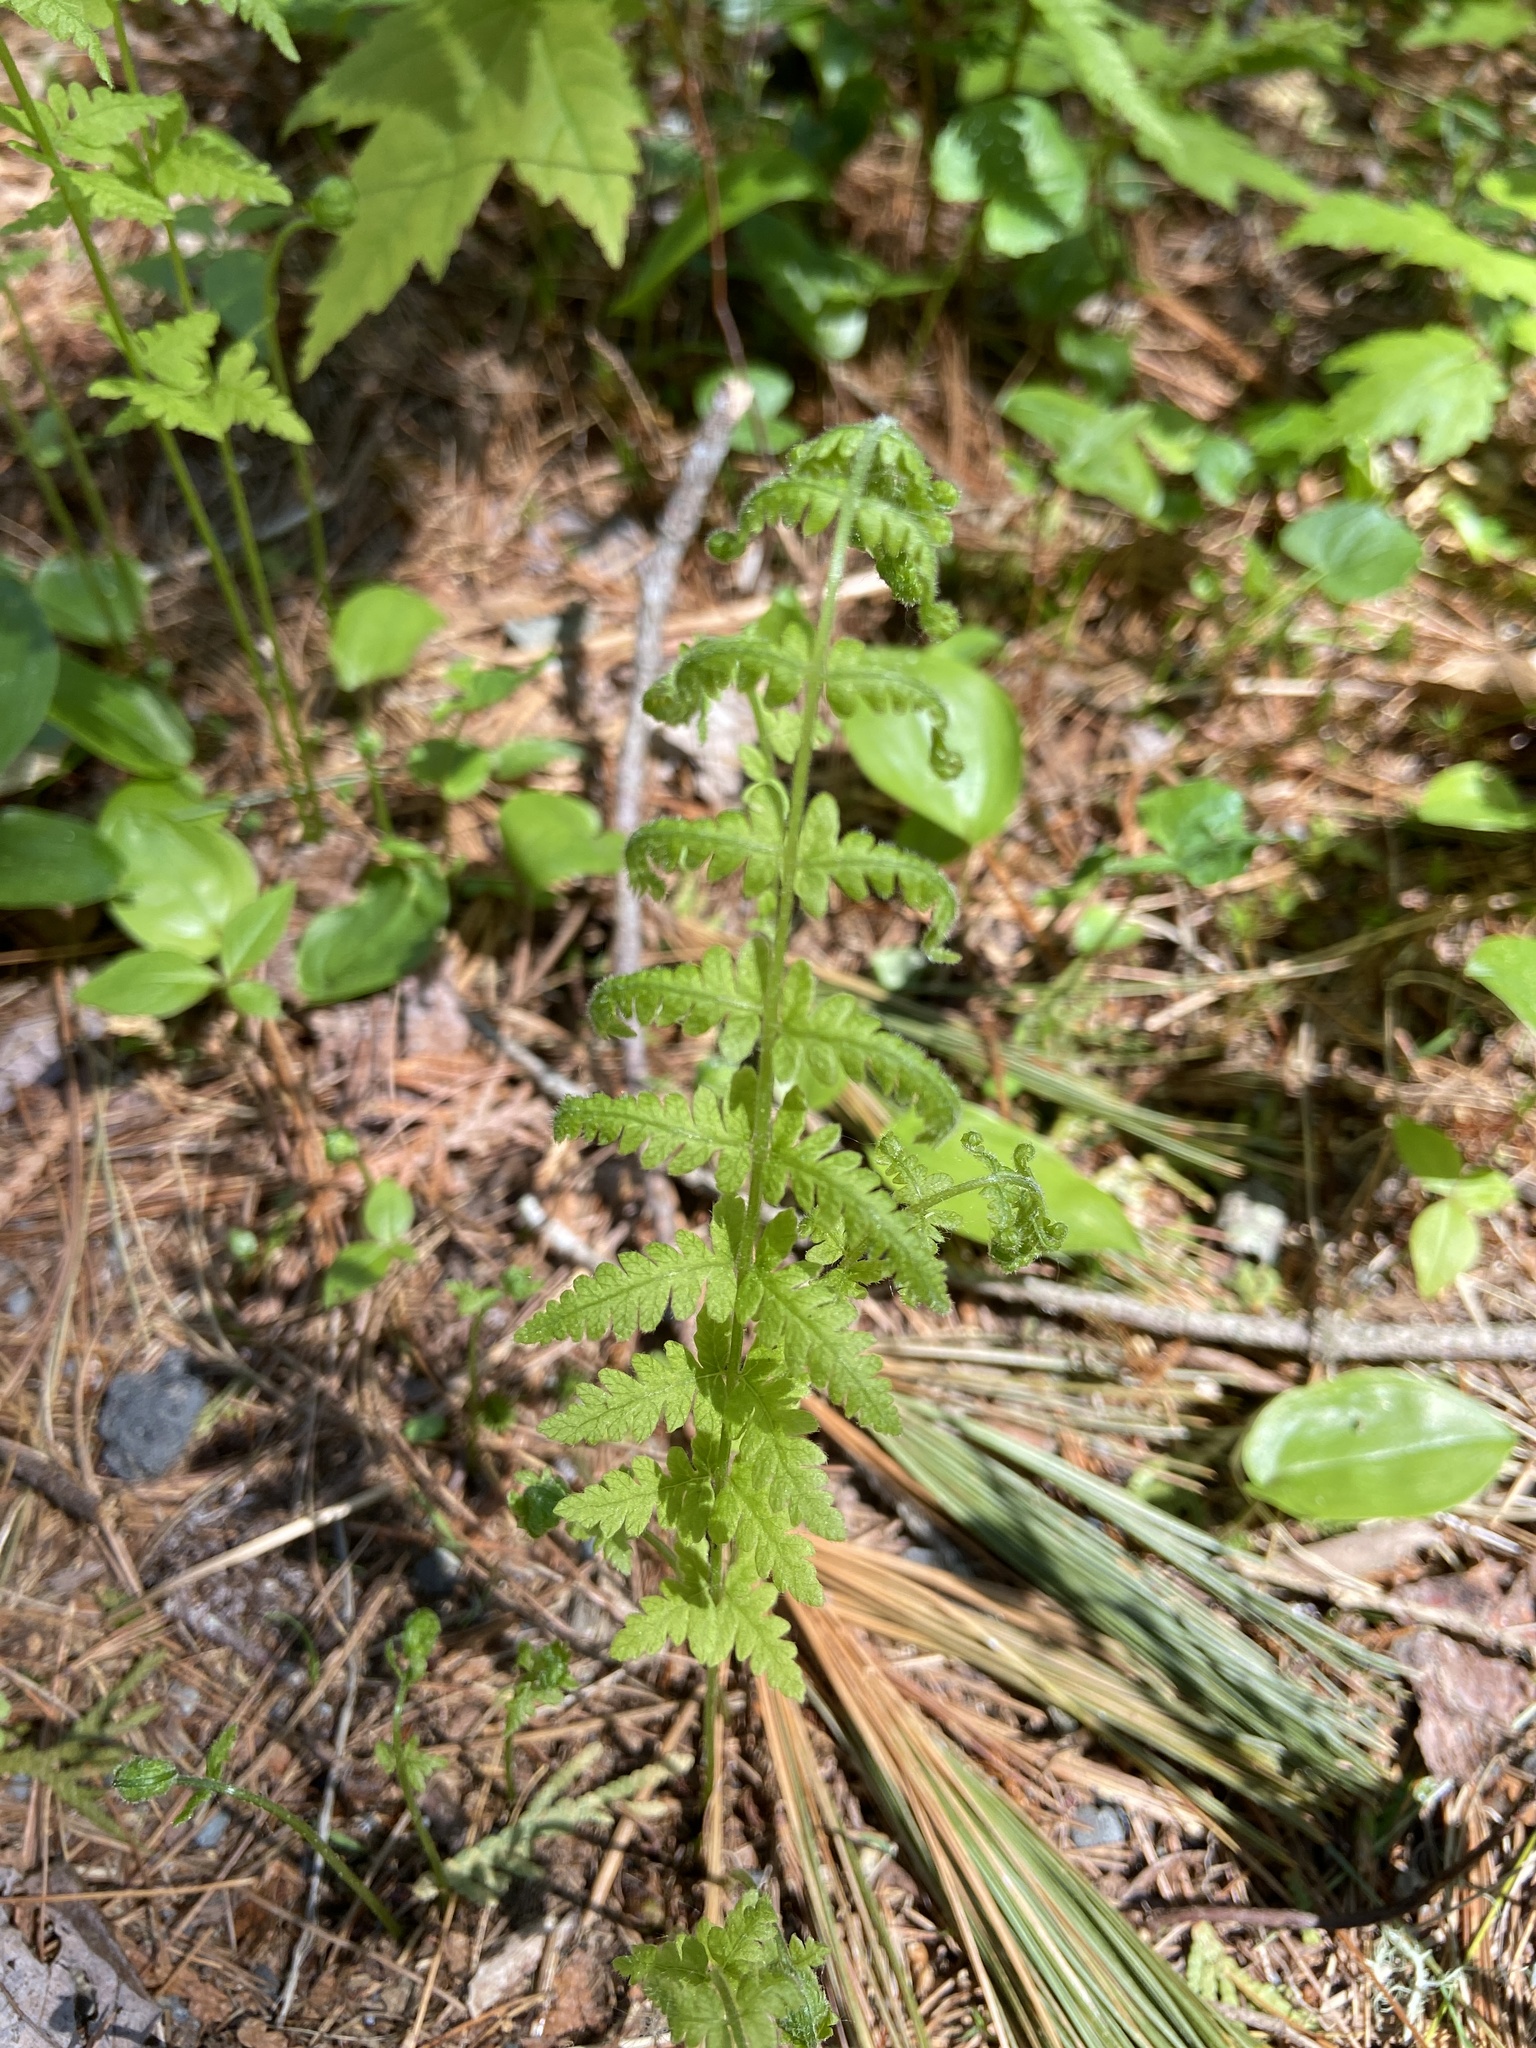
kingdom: Plantae
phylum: Tracheophyta
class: Polypodiopsida
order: Polypodiales
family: Thelypteridaceae
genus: Amauropelta
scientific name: Amauropelta noveboracensis
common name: New york fern
